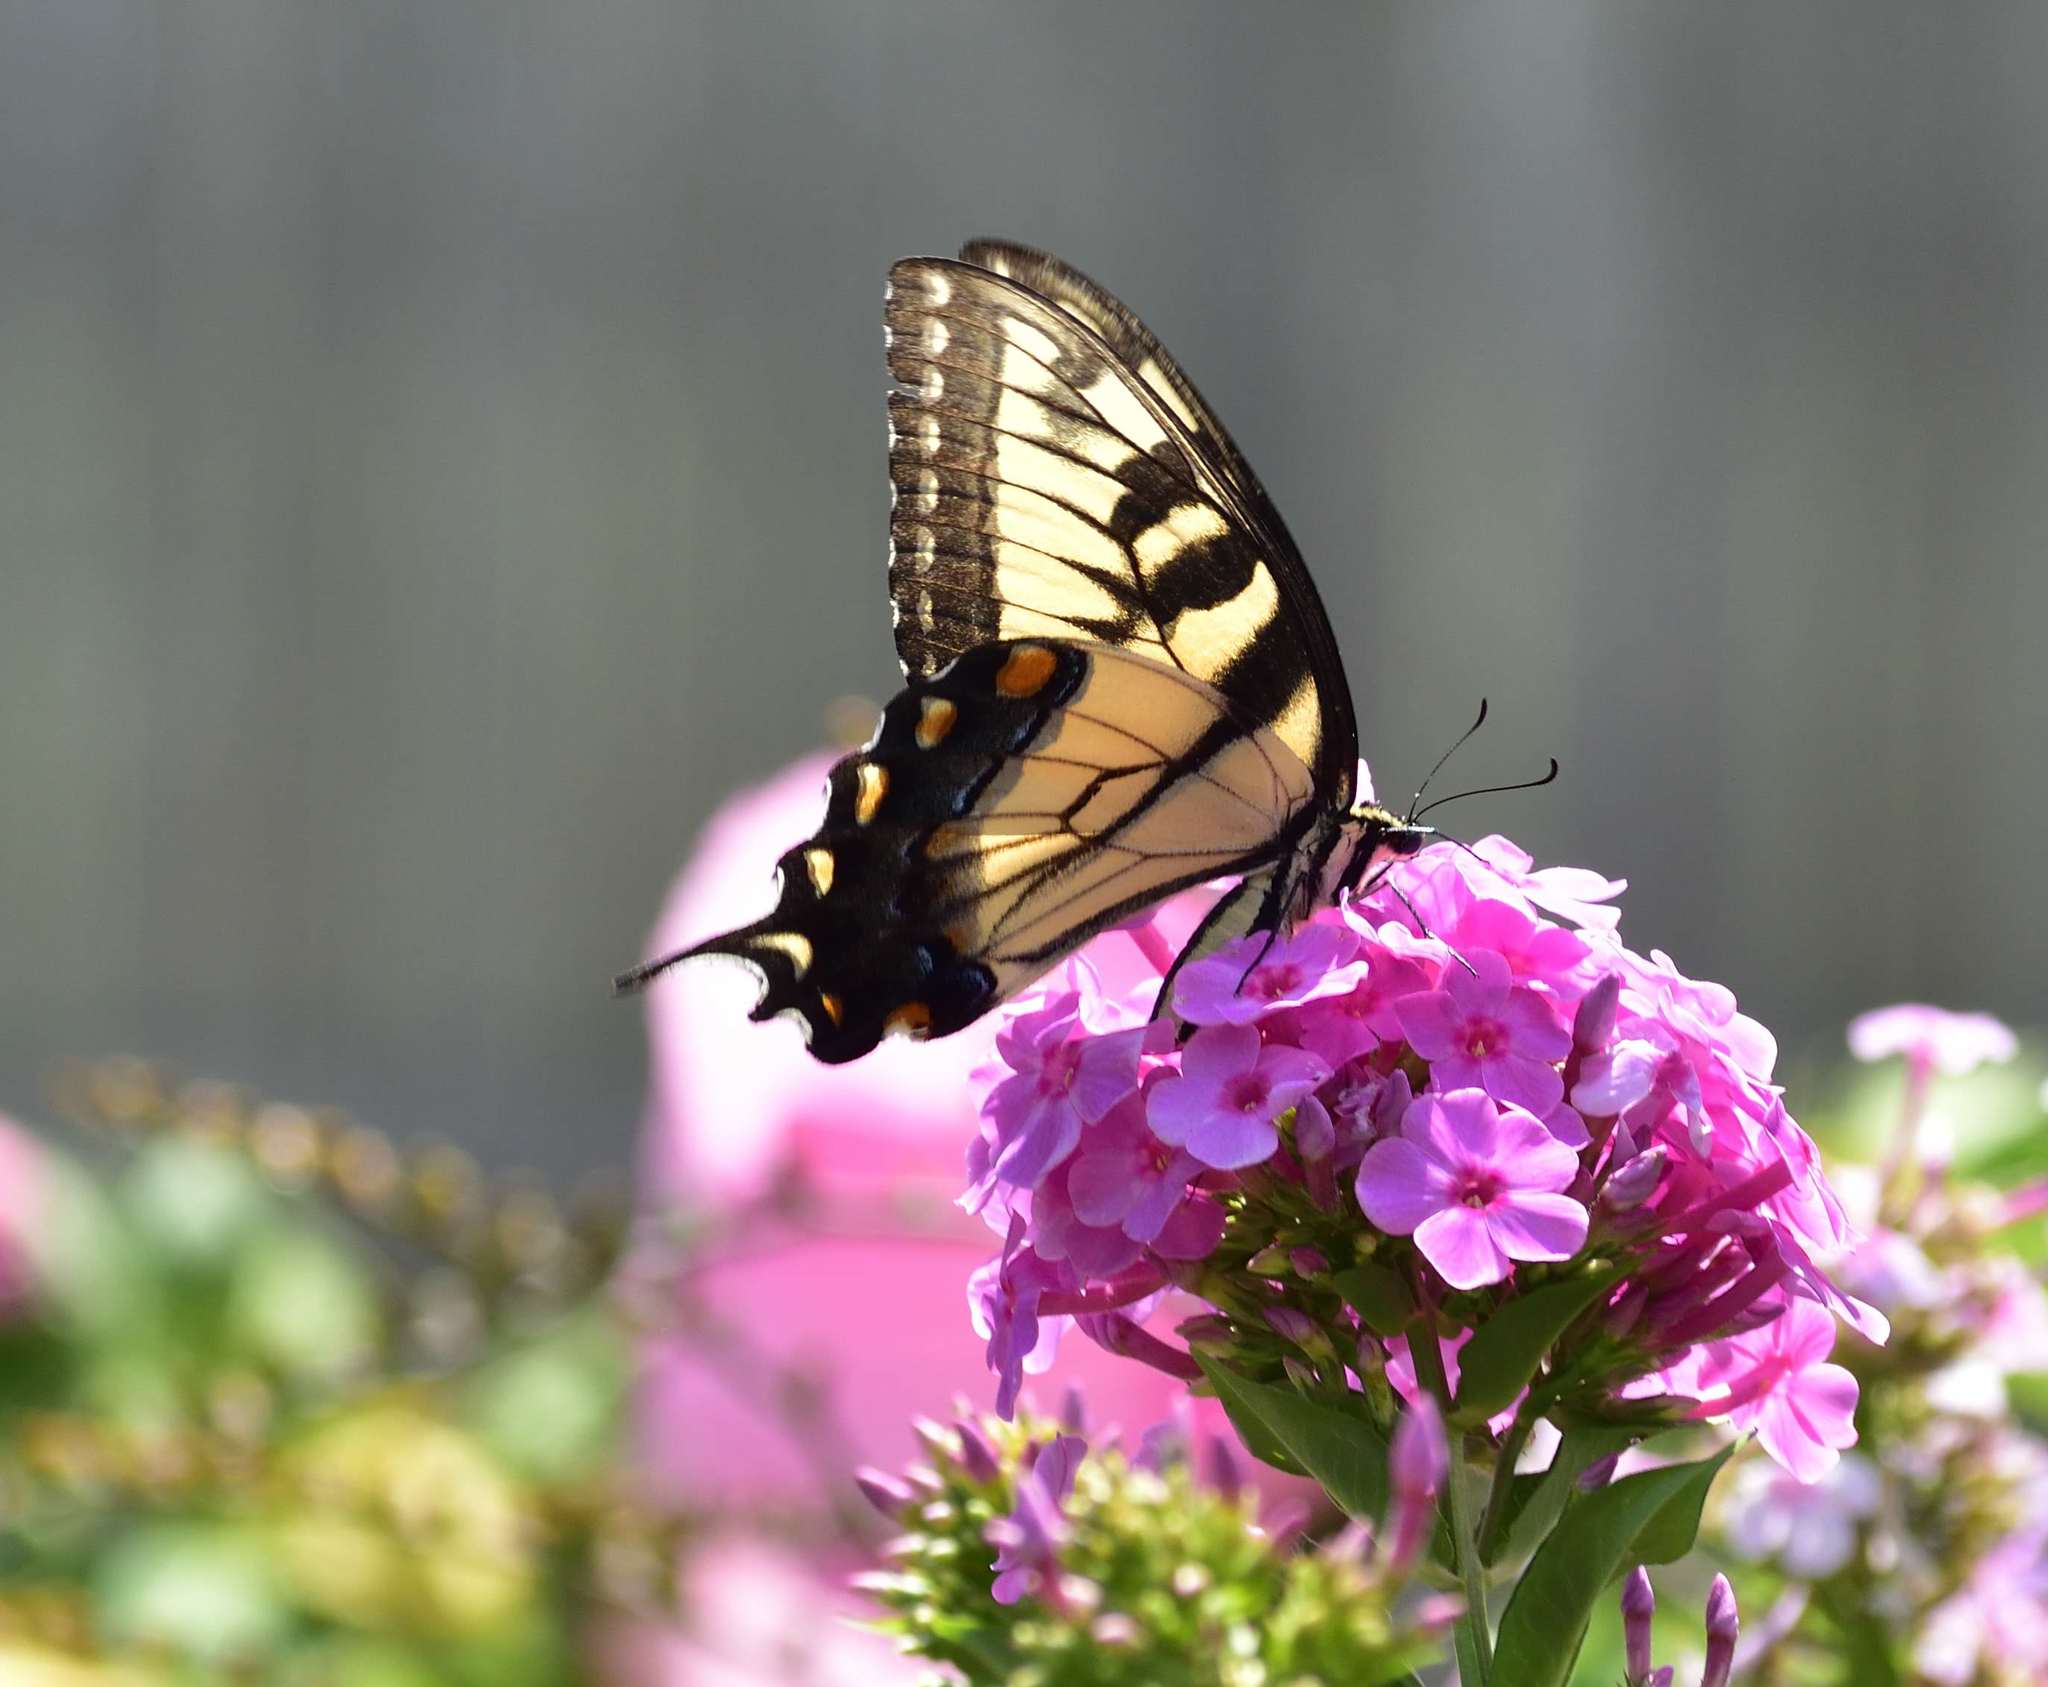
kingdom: Animalia
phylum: Arthropoda
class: Insecta
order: Lepidoptera
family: Papilionidae
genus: Papilio
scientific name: Papilio glaucus
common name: Tiger swallowtail
